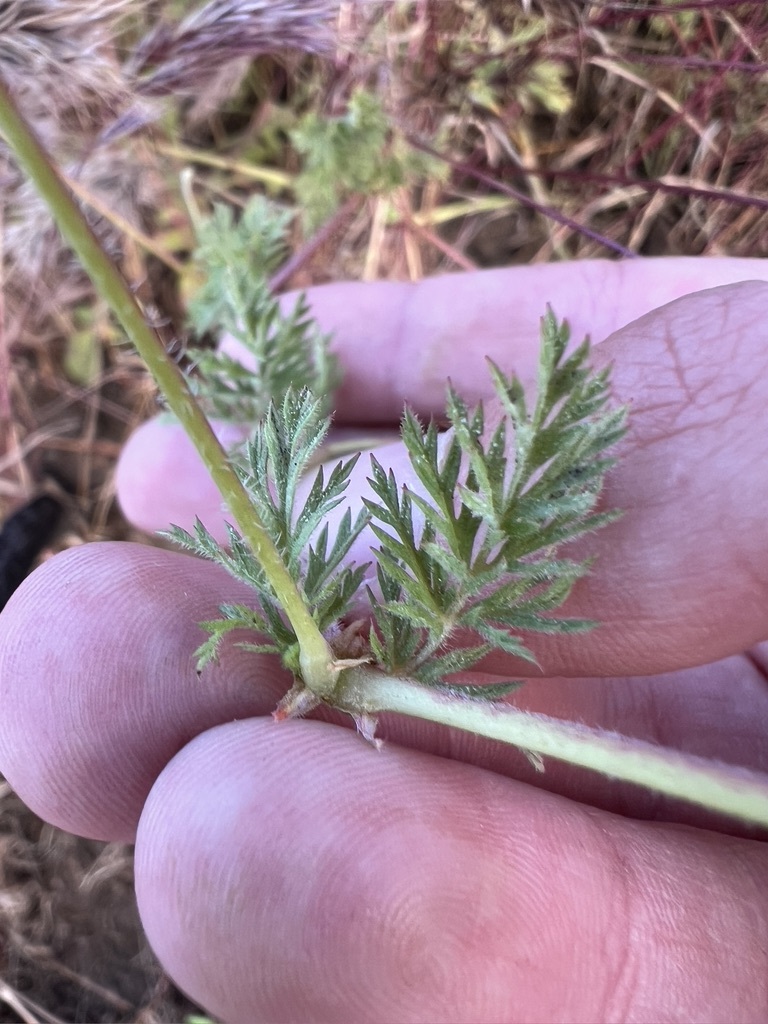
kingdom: Plantae
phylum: Tracheophyta
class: Magnoliopsida
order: Geraniales
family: Geraniaceae
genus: Erodium
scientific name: Erodium cicutarium
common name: Common stork's-bill
